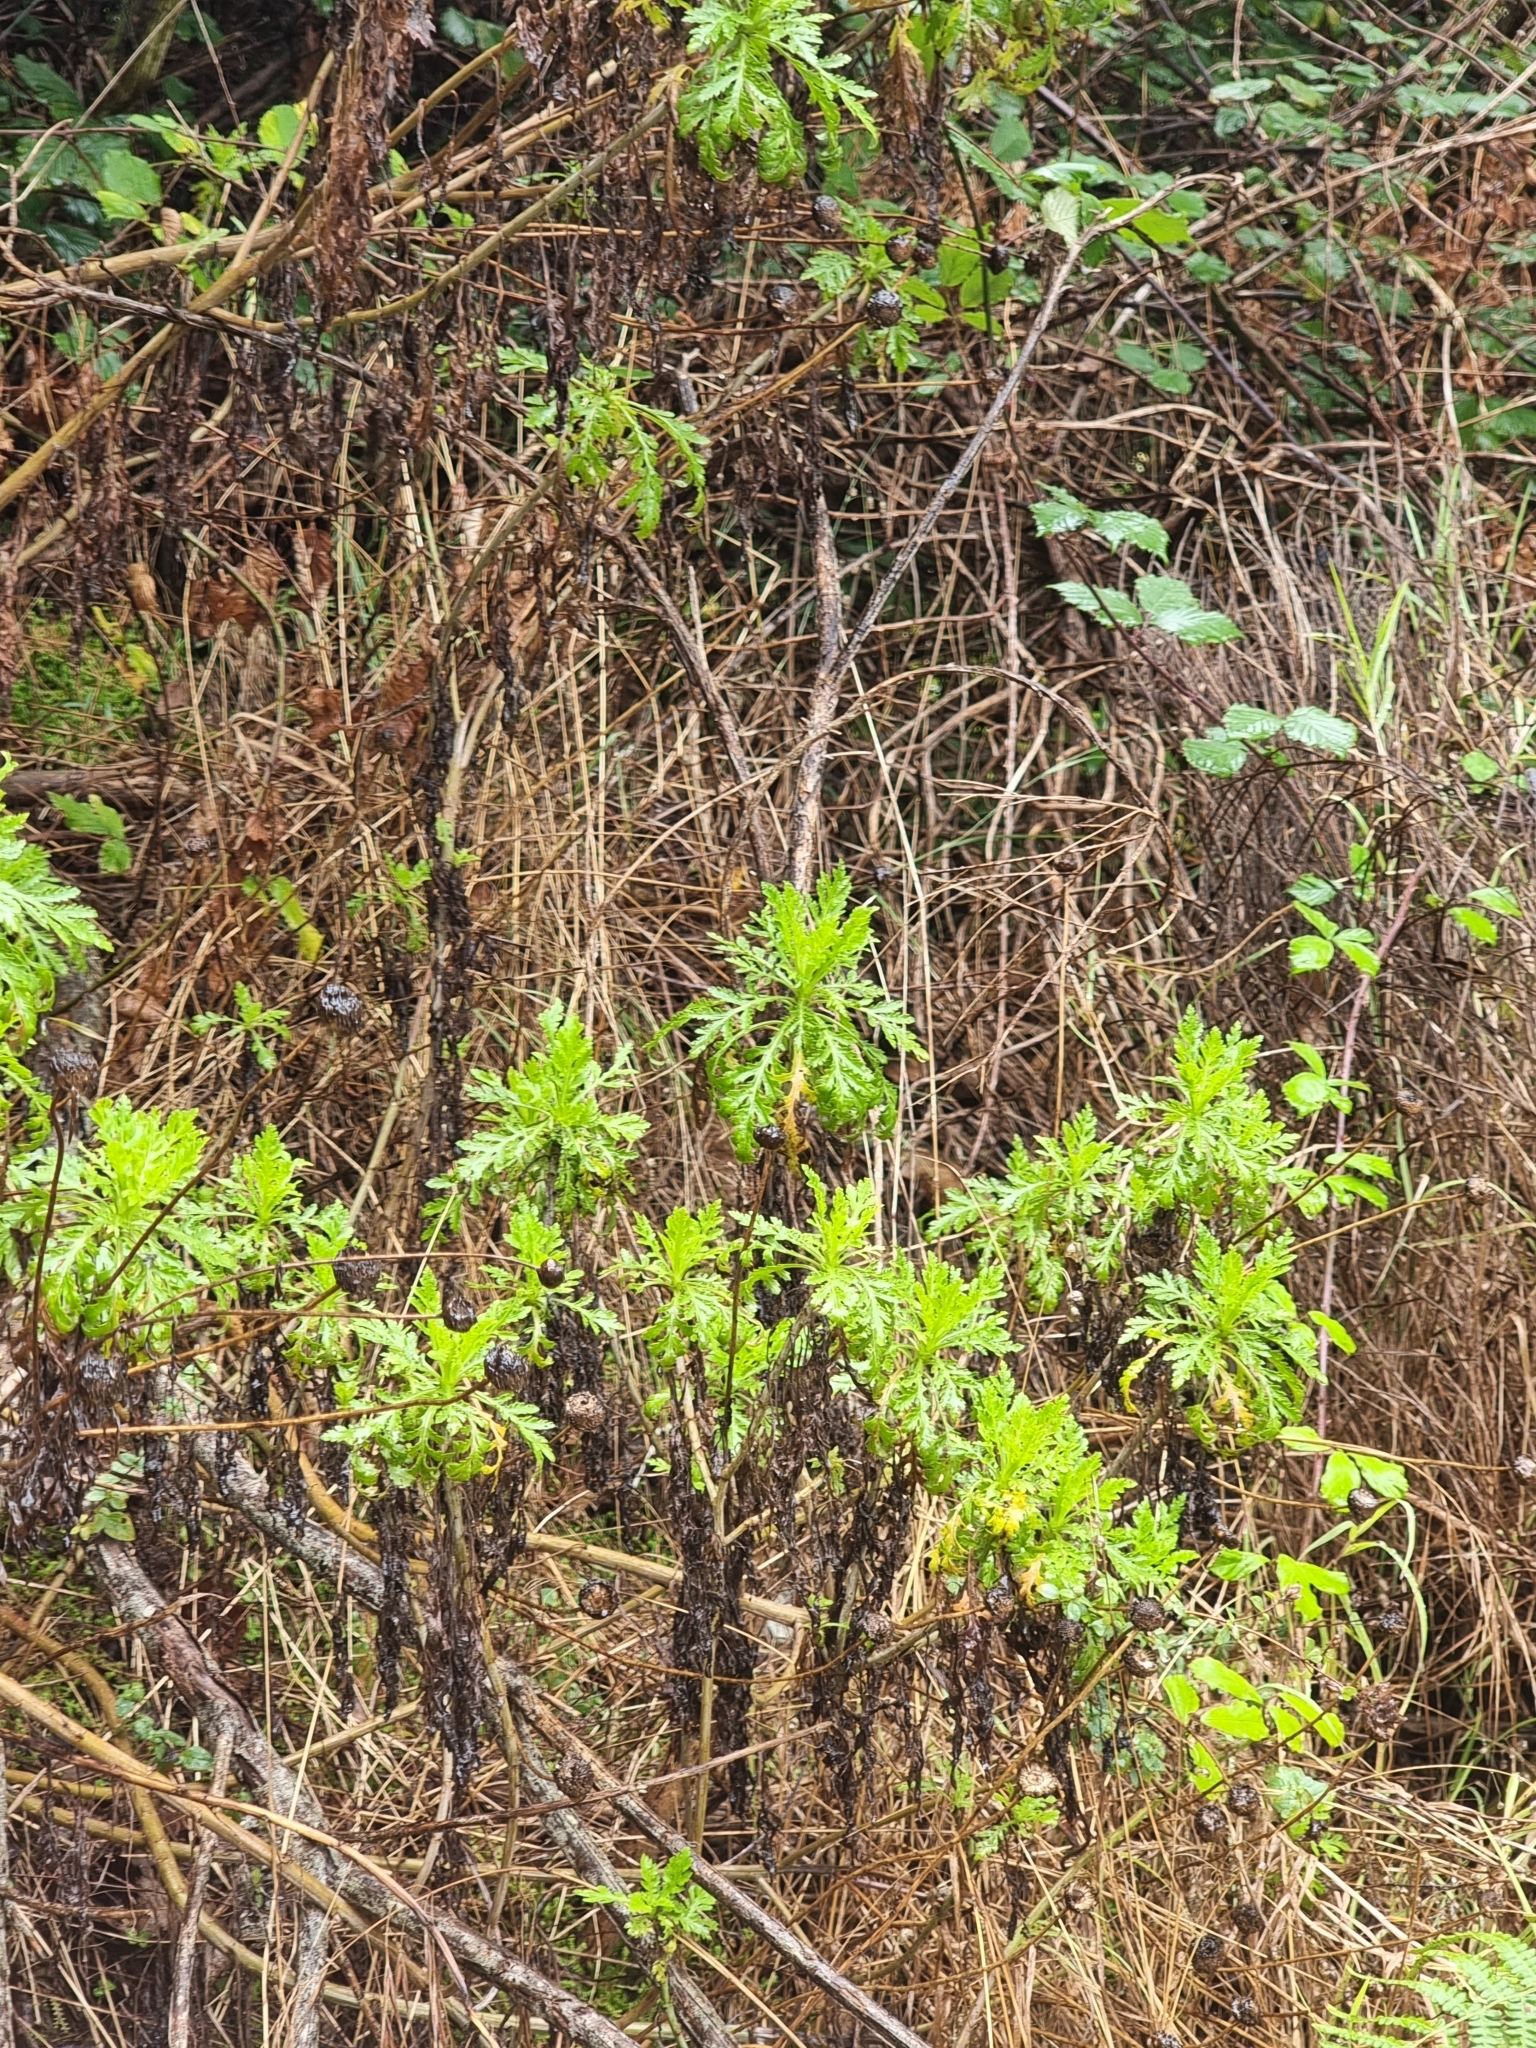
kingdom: Plantae
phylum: Tracheophyta
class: Magnoliopsida
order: Asterales
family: Asteraceae
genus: Argyranthemum
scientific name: Argyranthemum dissectum
